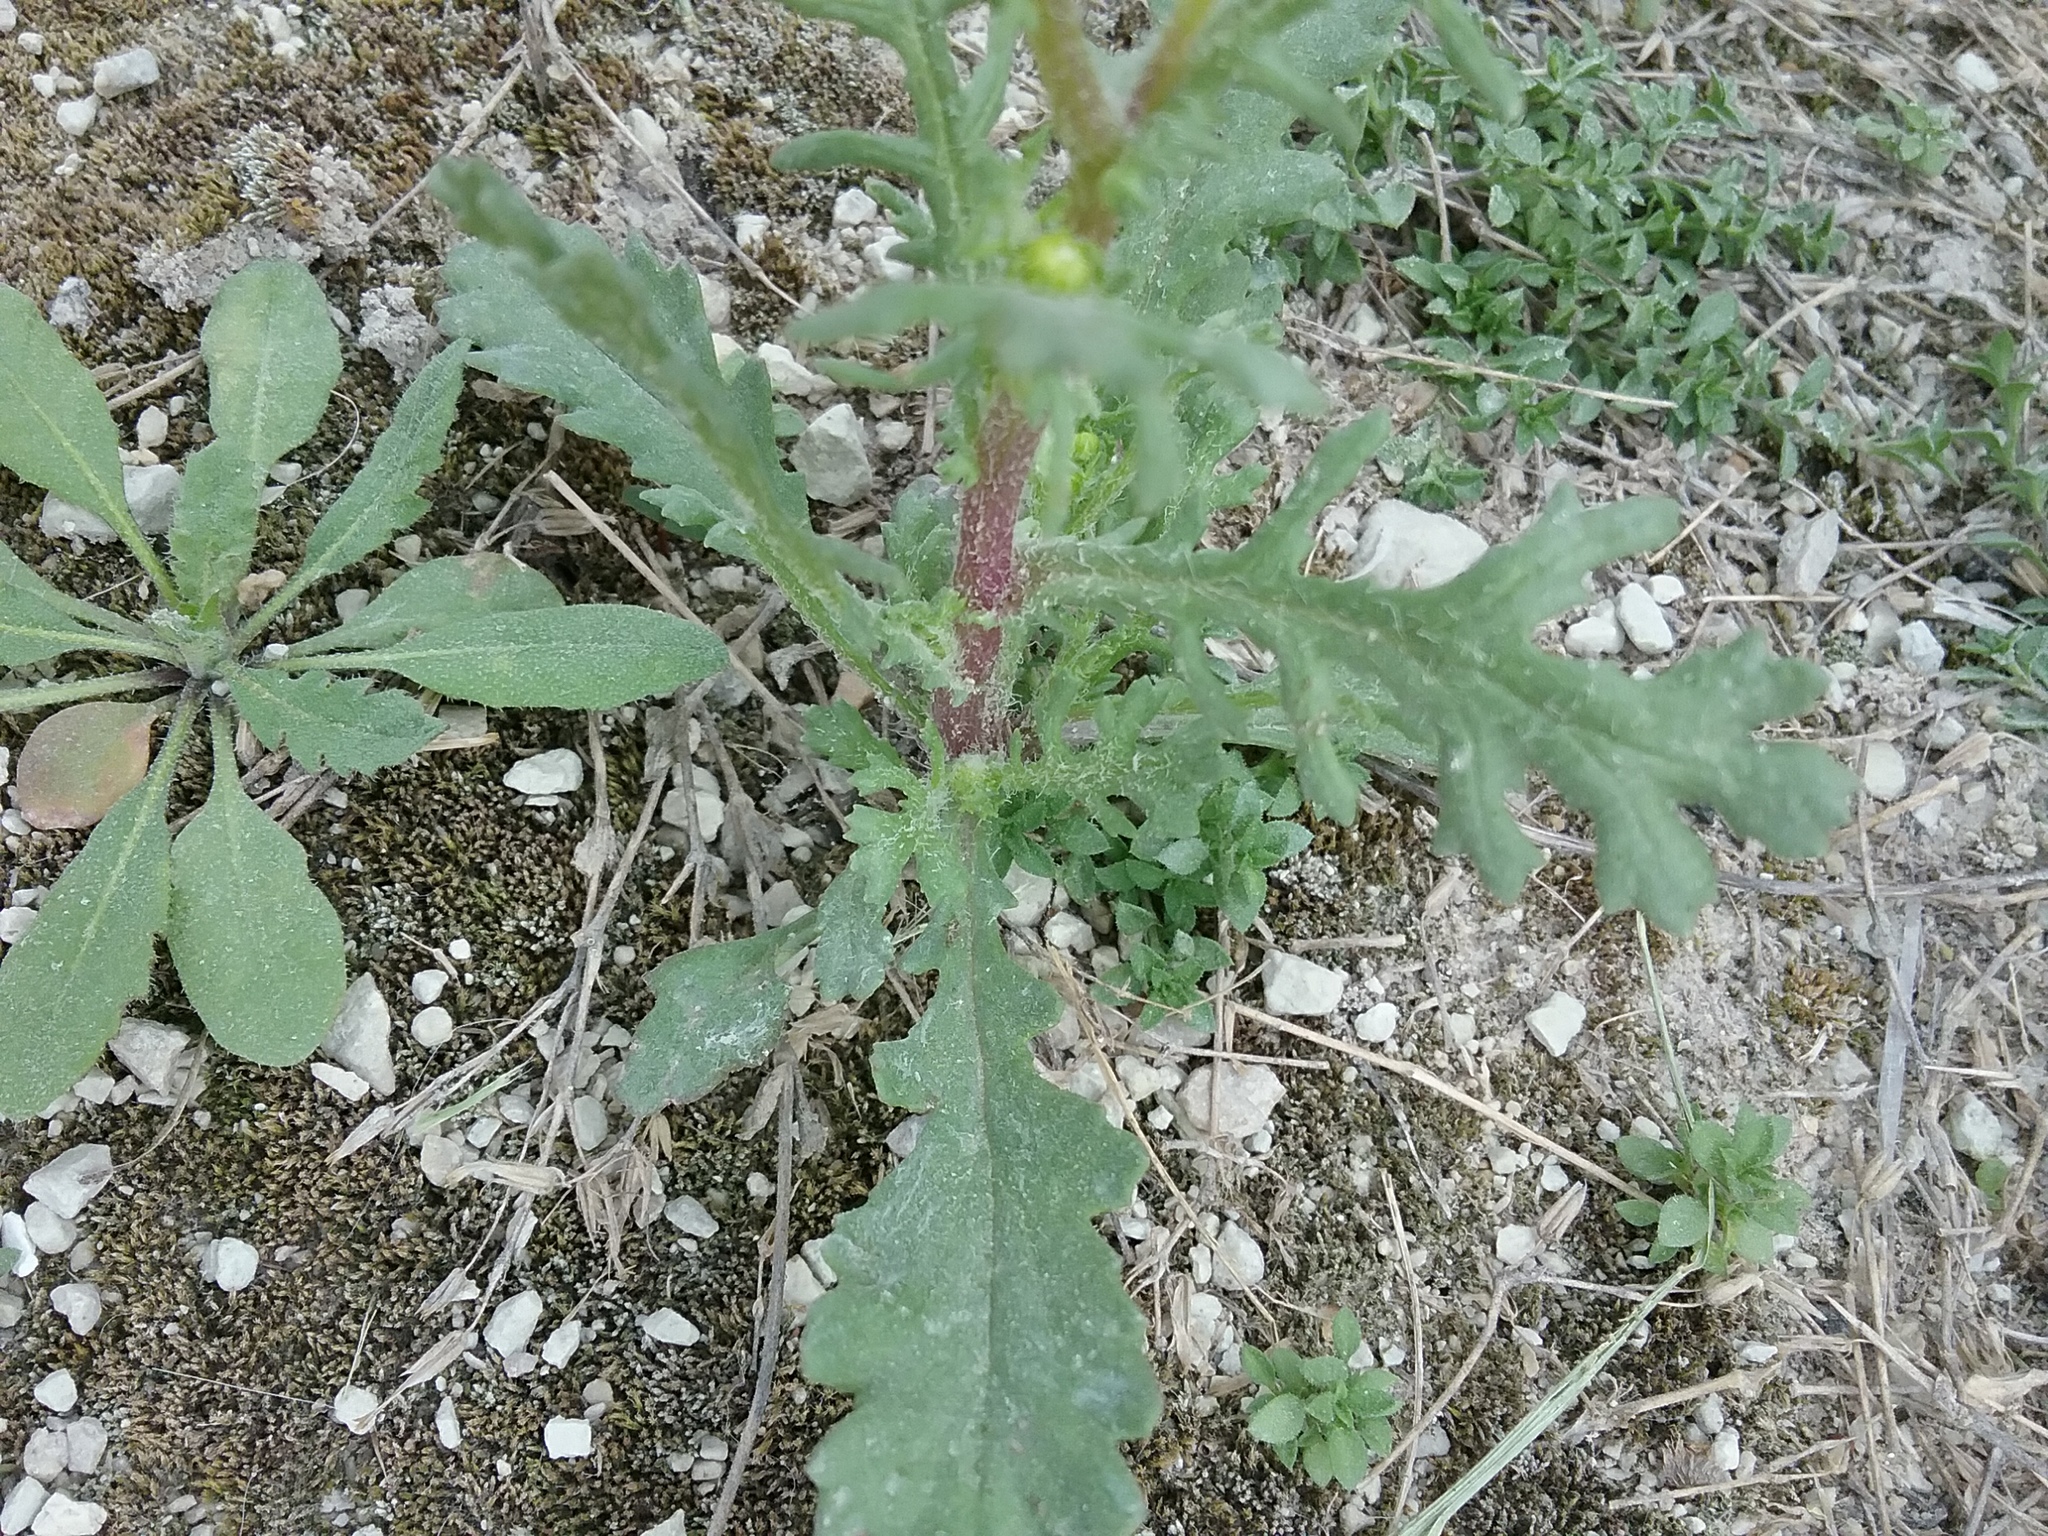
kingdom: Plantae
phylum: Tracheophyta
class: Magnoliopsida
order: Asterales
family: Asteraceae
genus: Senecio
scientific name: Senecio vulgaris
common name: Old-man-in-the-spring
